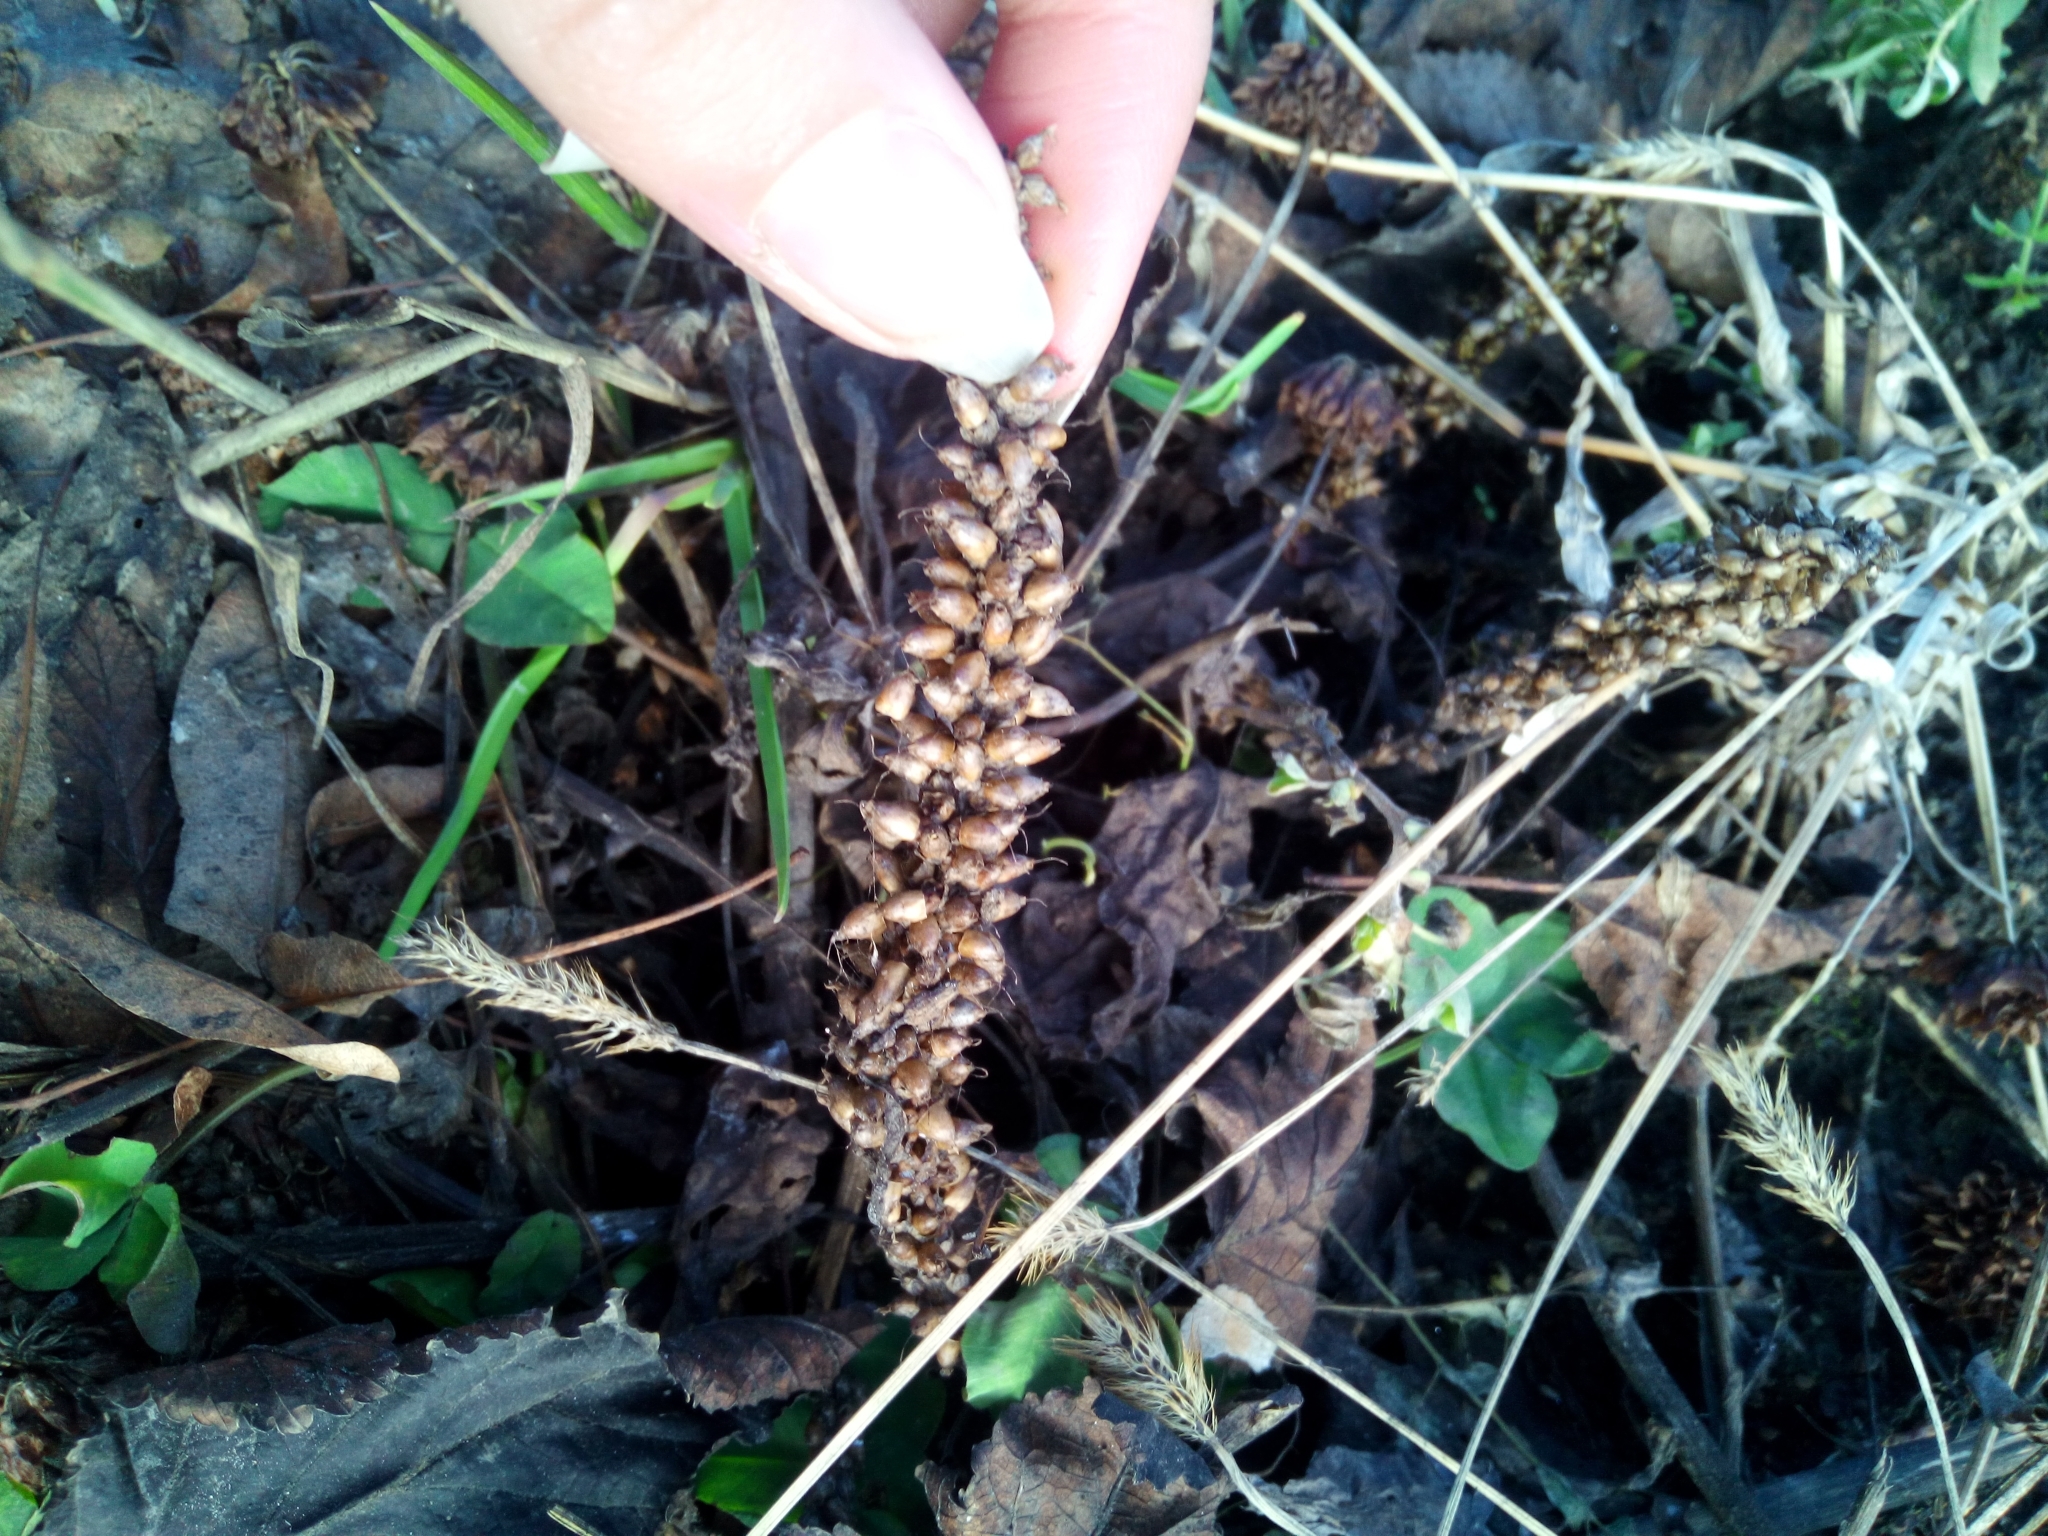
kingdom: Plantae
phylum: Tracheophyta
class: Magnoliopsida
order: Lamiales
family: Plantaginaceae
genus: Plantago
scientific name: Plantago major
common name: Common plantain
